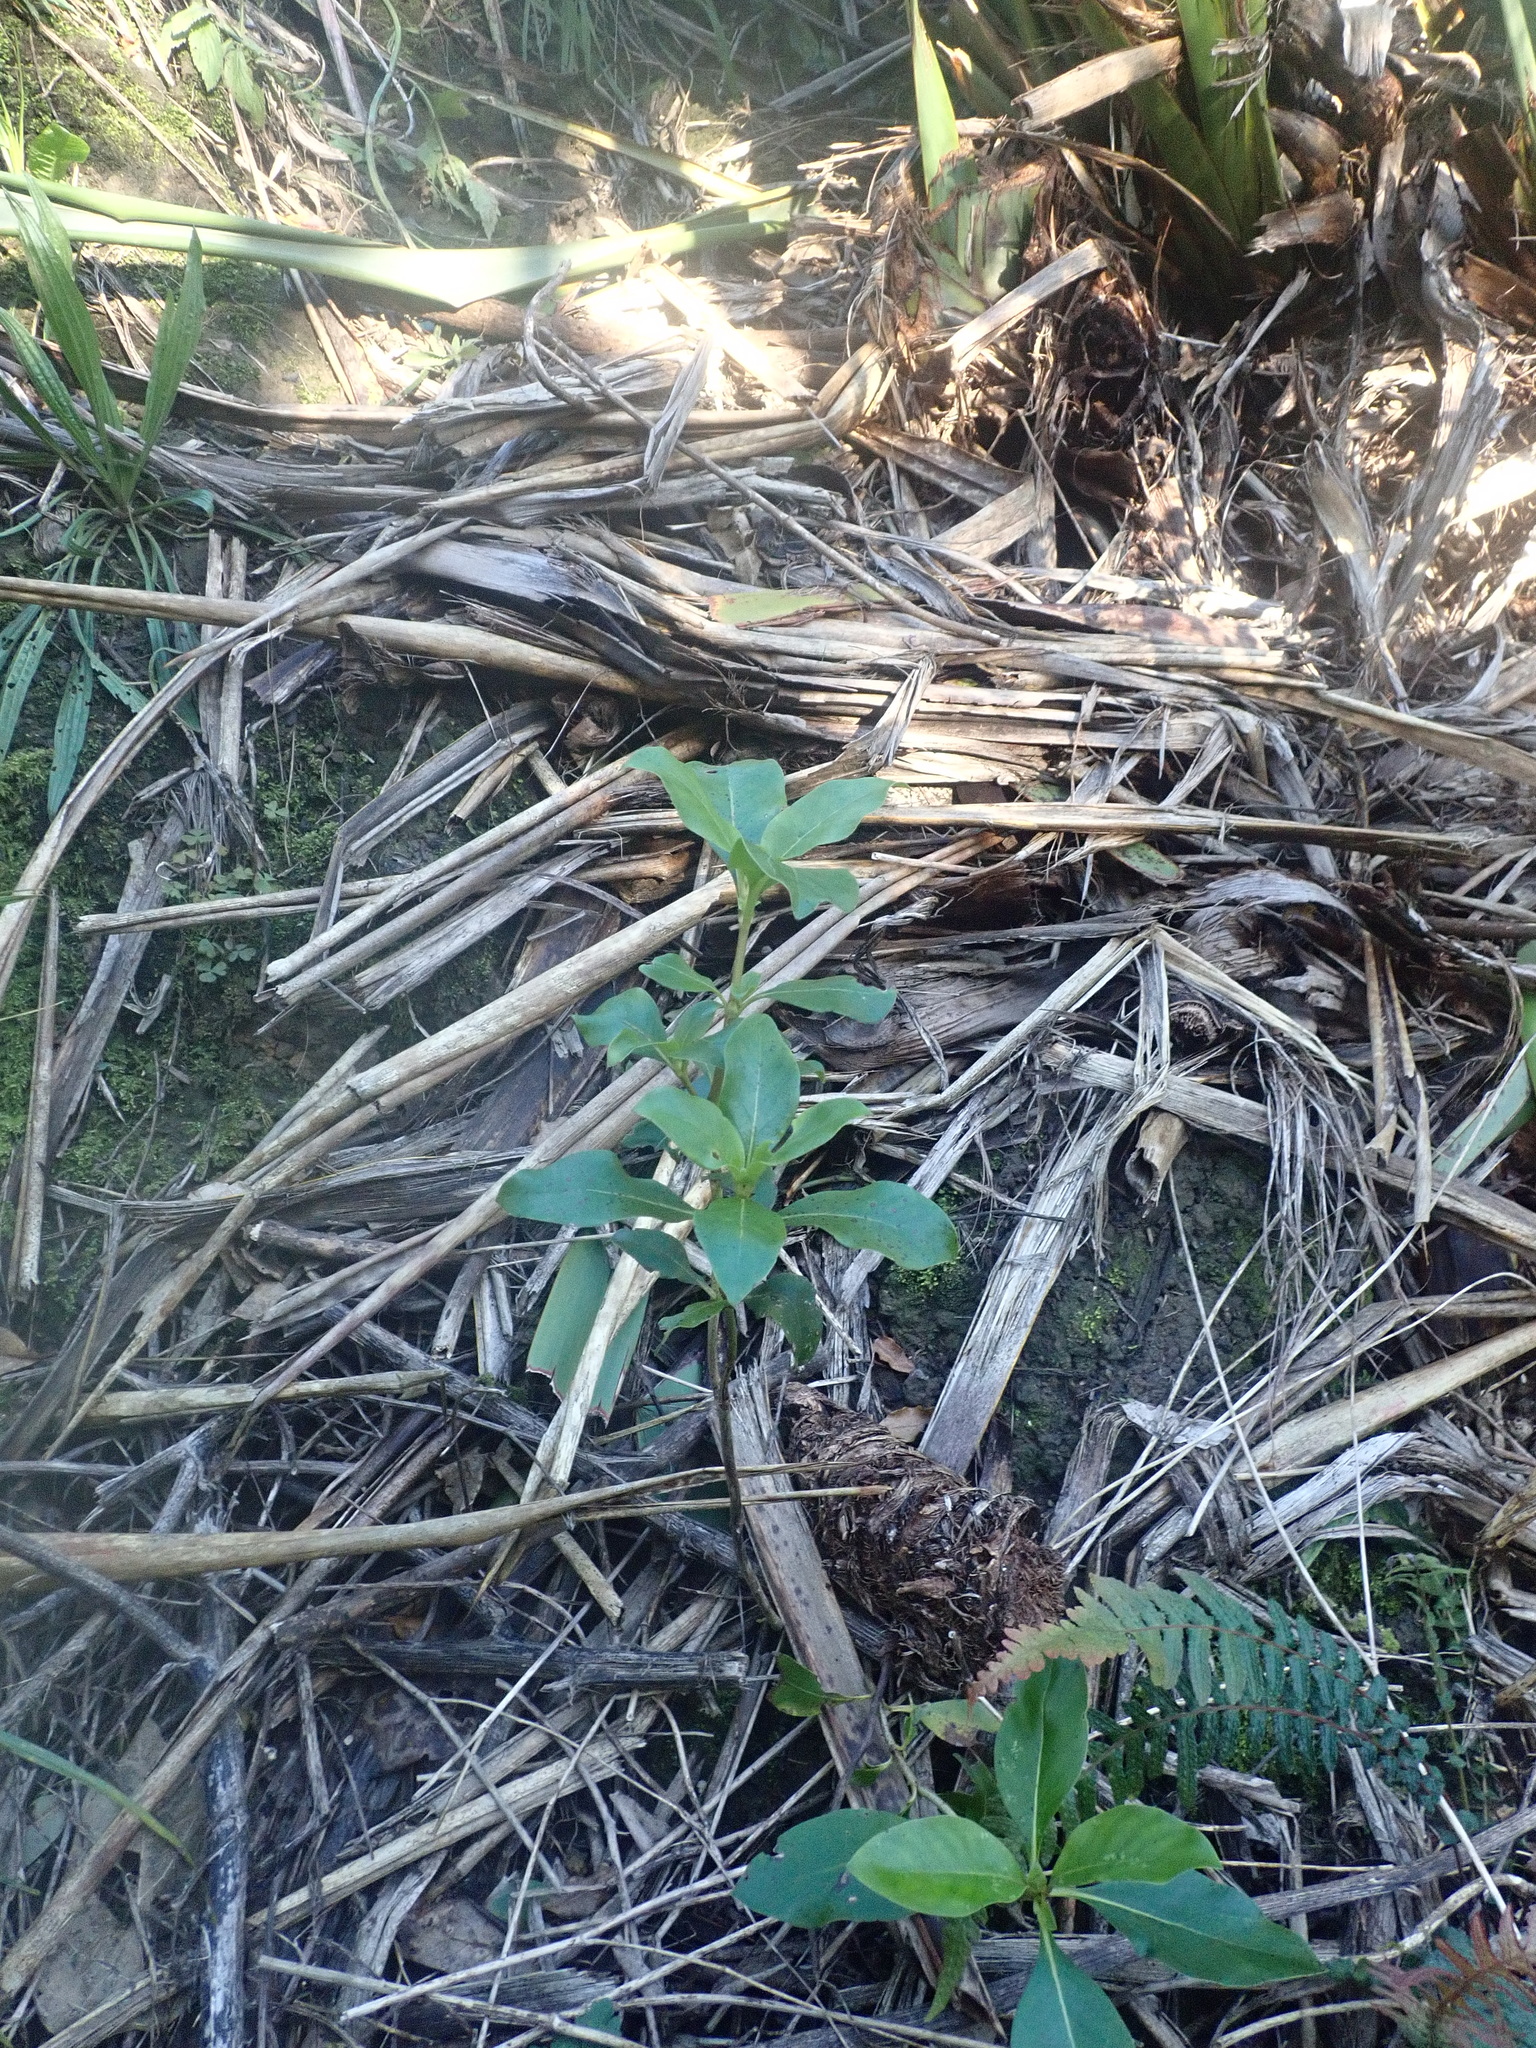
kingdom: Plantae
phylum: Tracheophyta
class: Magnoliopsida
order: Gentianales
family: Rubiaceae
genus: Coprosma
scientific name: Coprosma robusta
